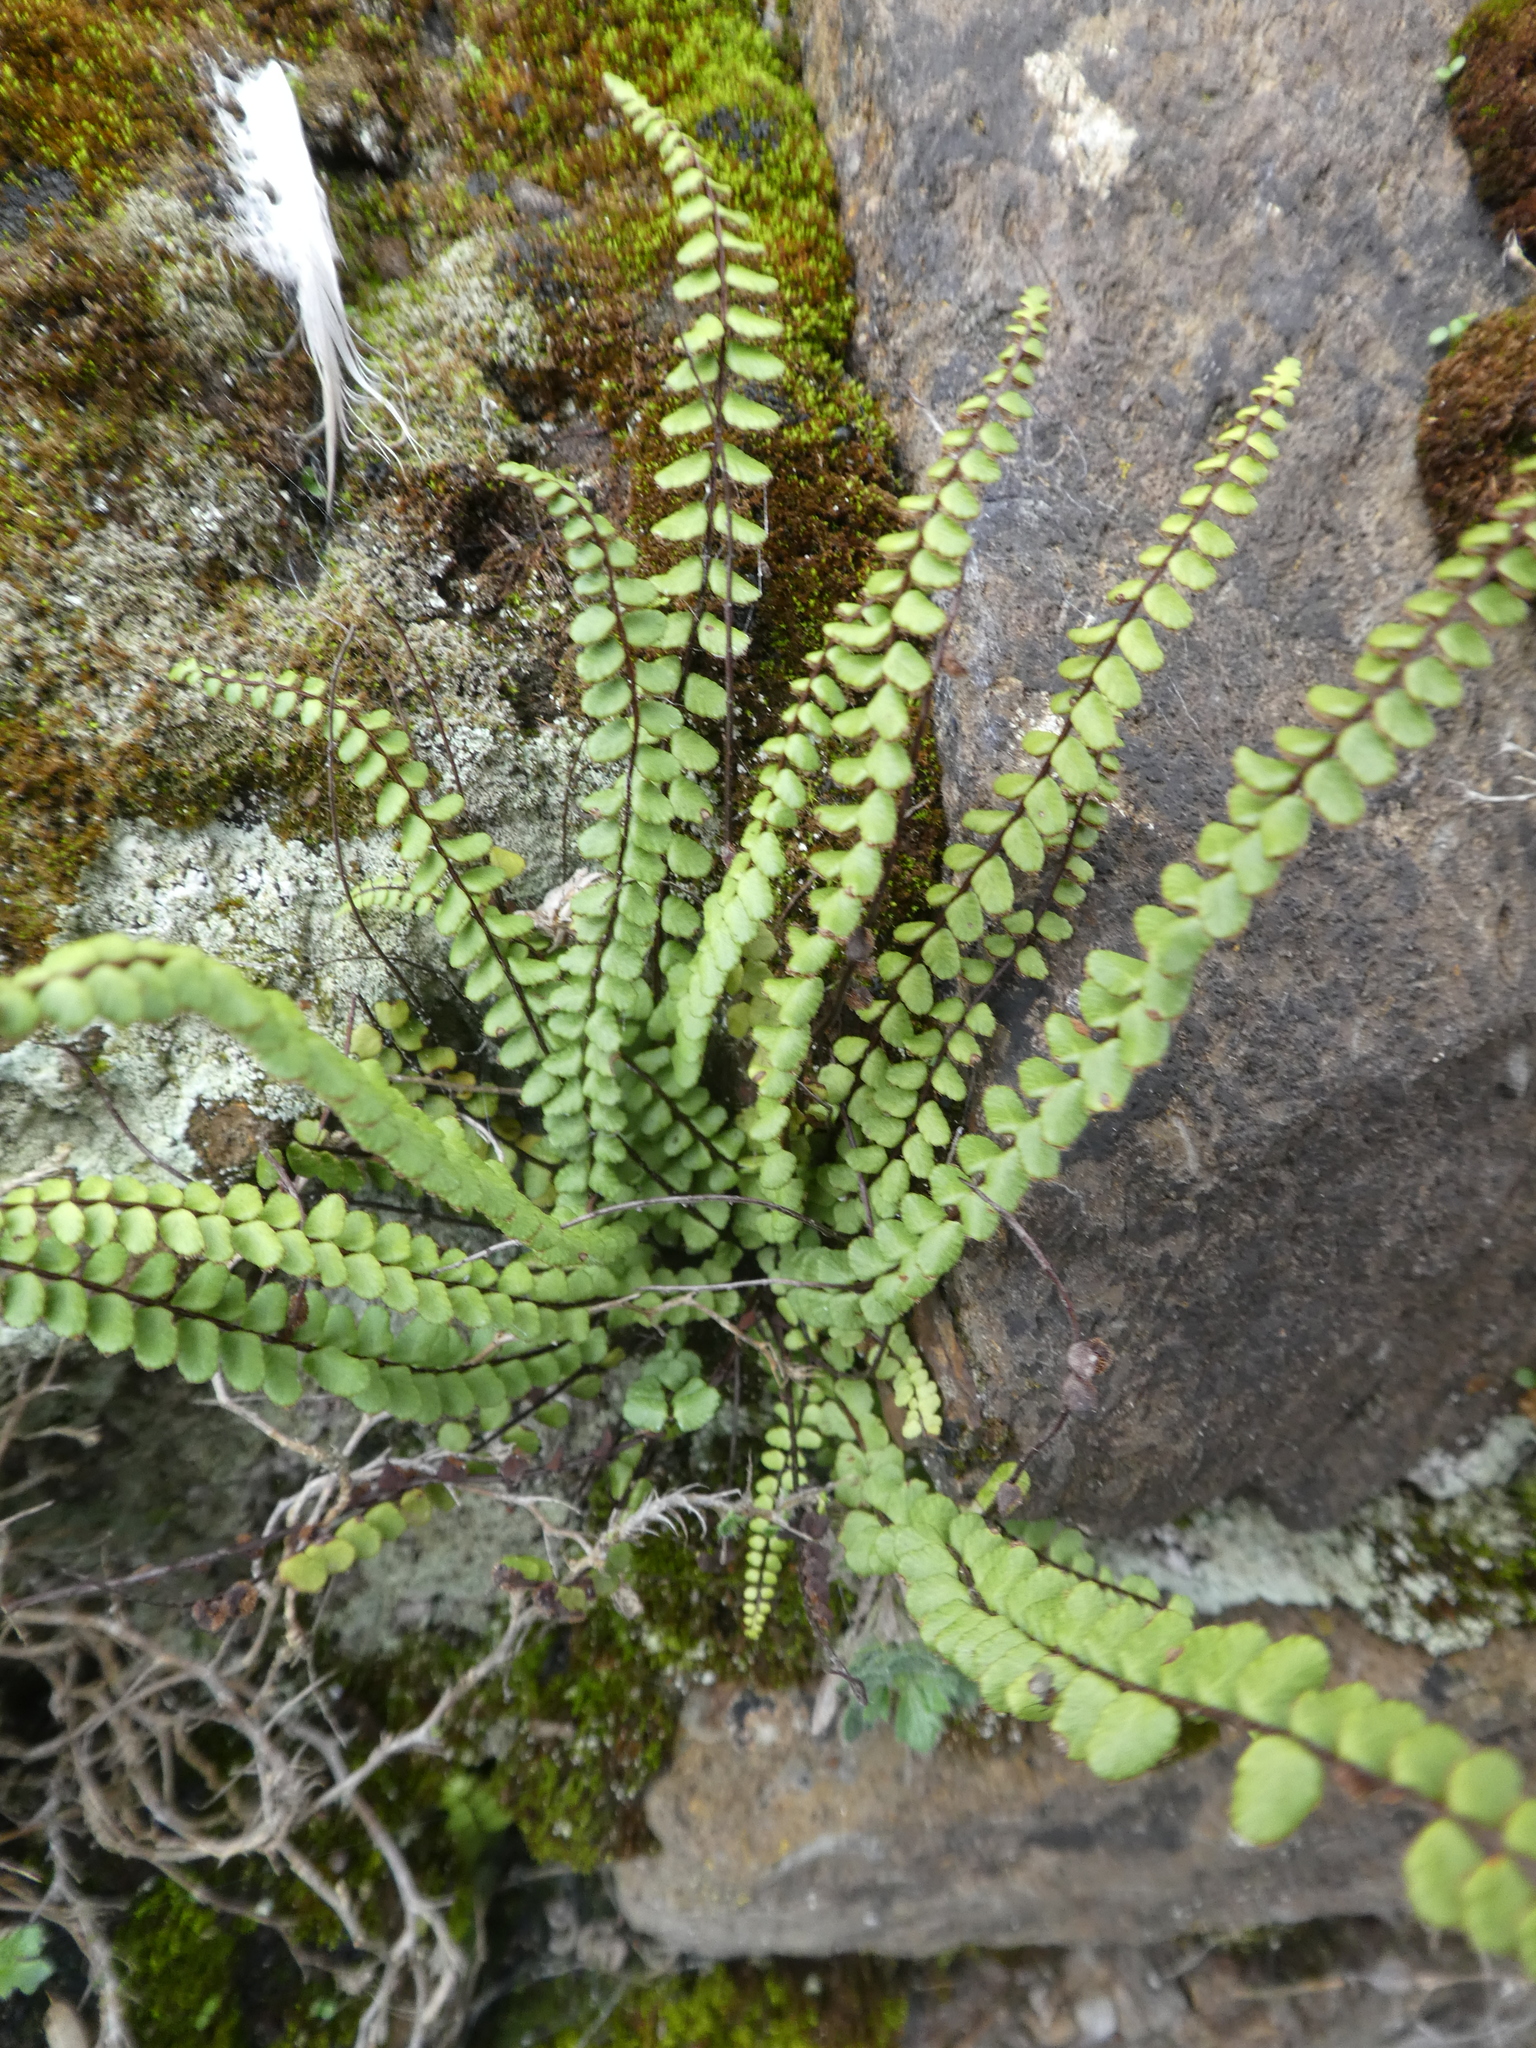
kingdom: Plantae
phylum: Tracheophyta
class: Polypodiopsida
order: Polypodiales
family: Aspleniaceae
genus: Asplenium
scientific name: Asplenium trichomanes
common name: Maidenhair spleenwort
